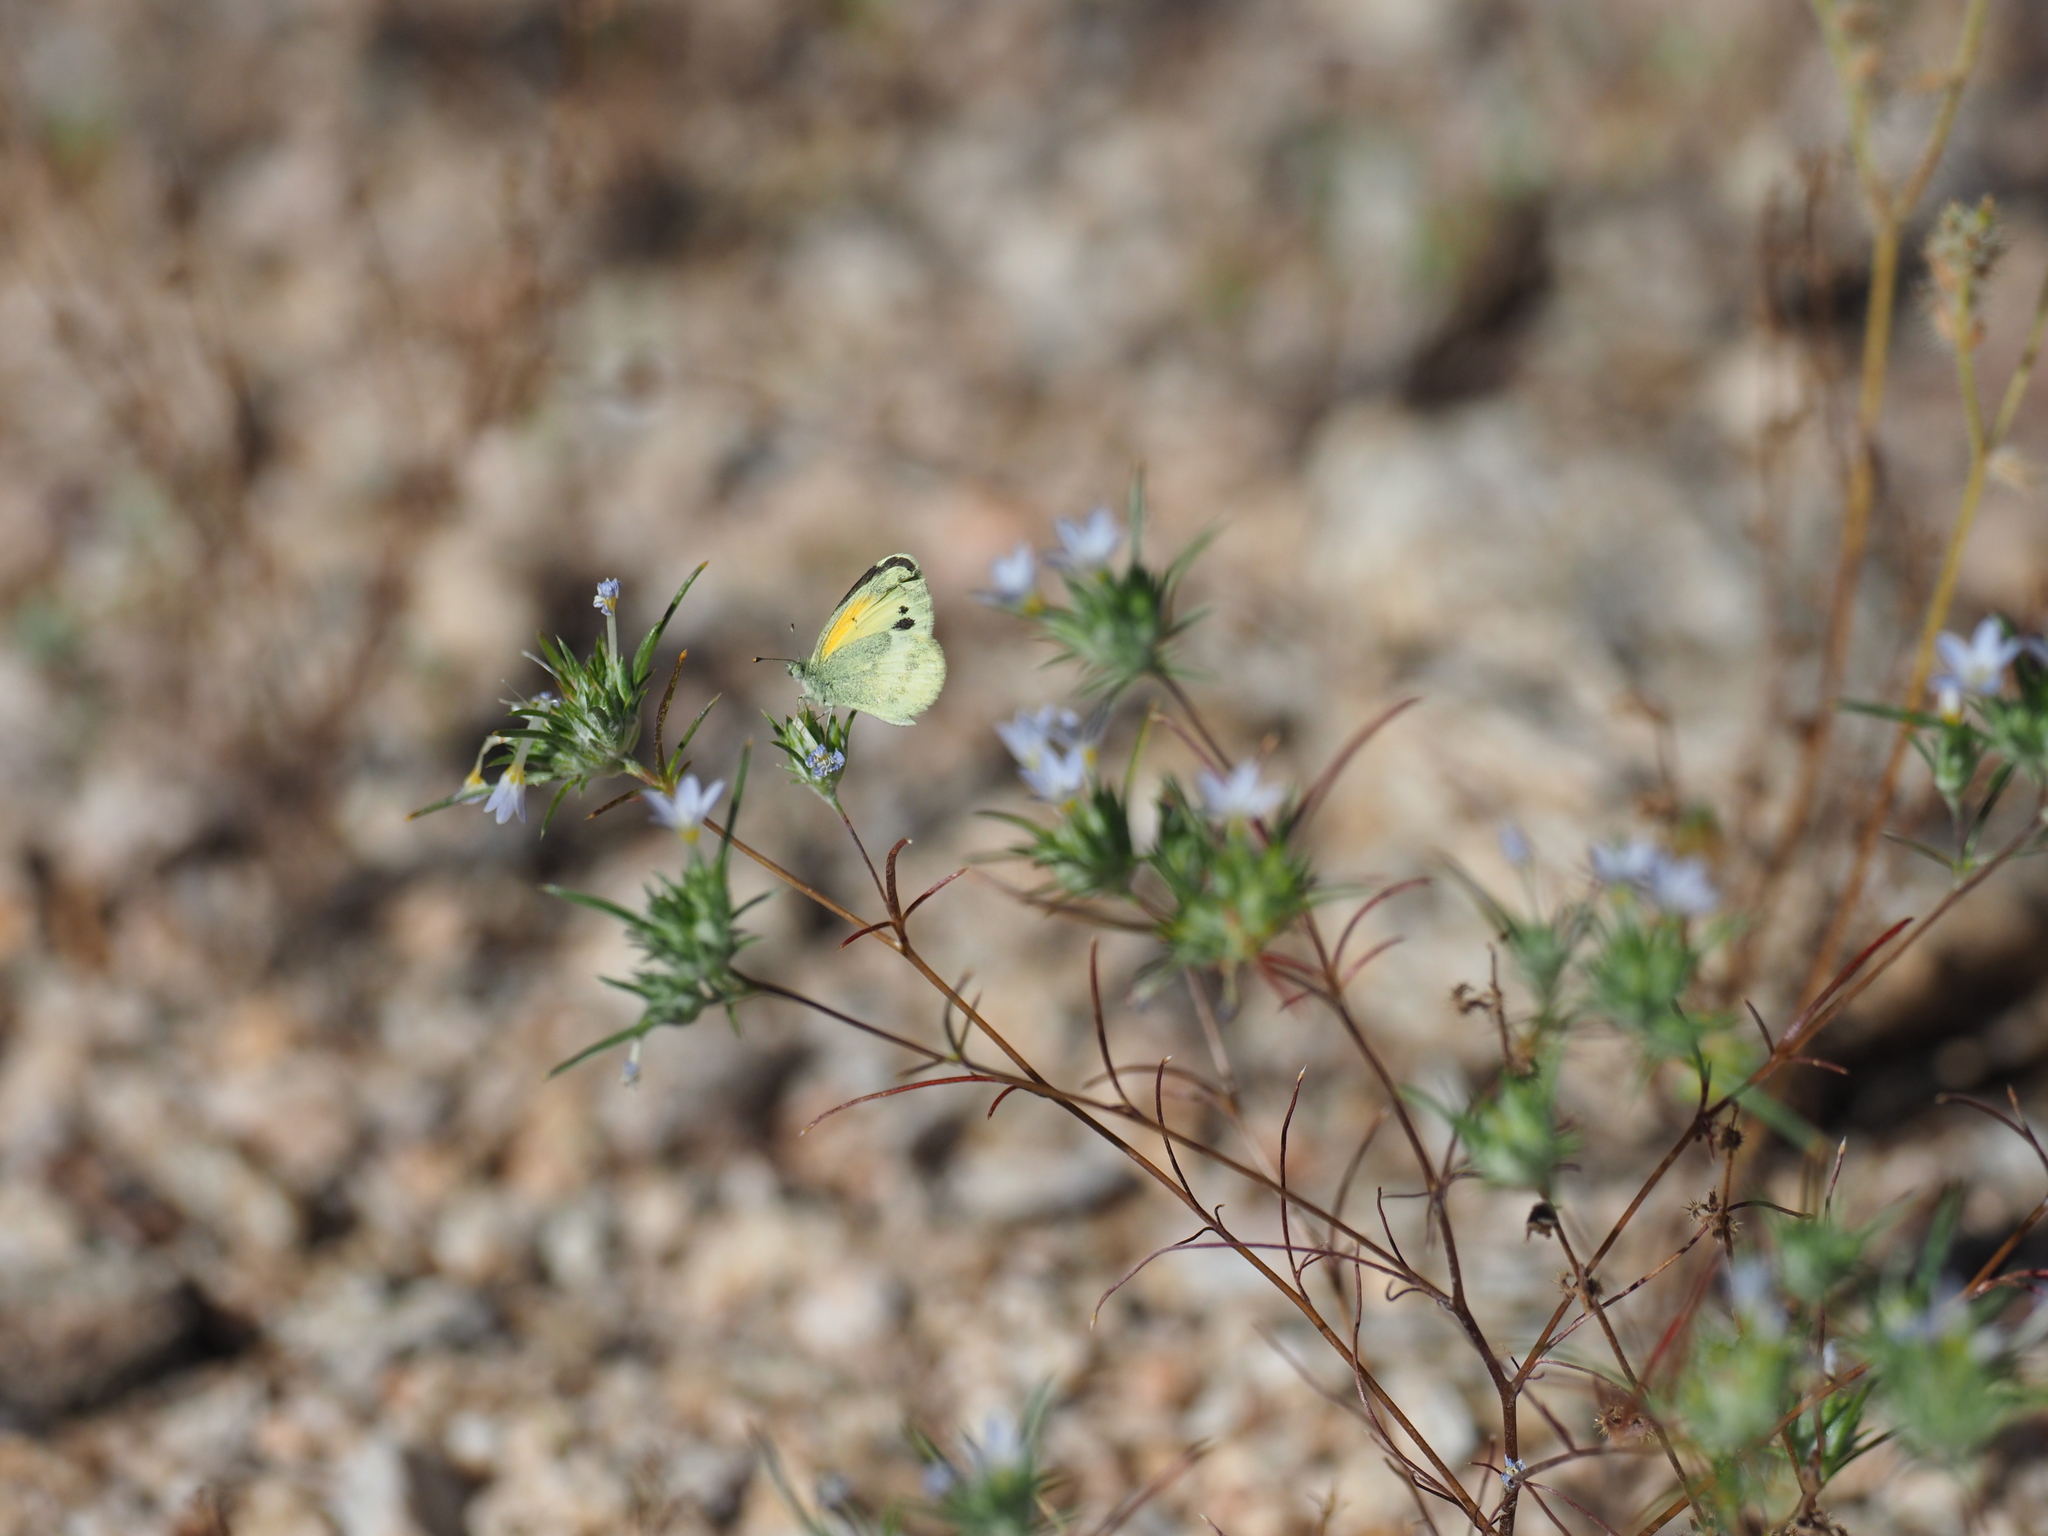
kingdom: Animalia
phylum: Arthropoda
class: Insecta
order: Lepidoptera
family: Pieridae
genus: Nathalis
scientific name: Nathalis iole
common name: Dainty sulphur
